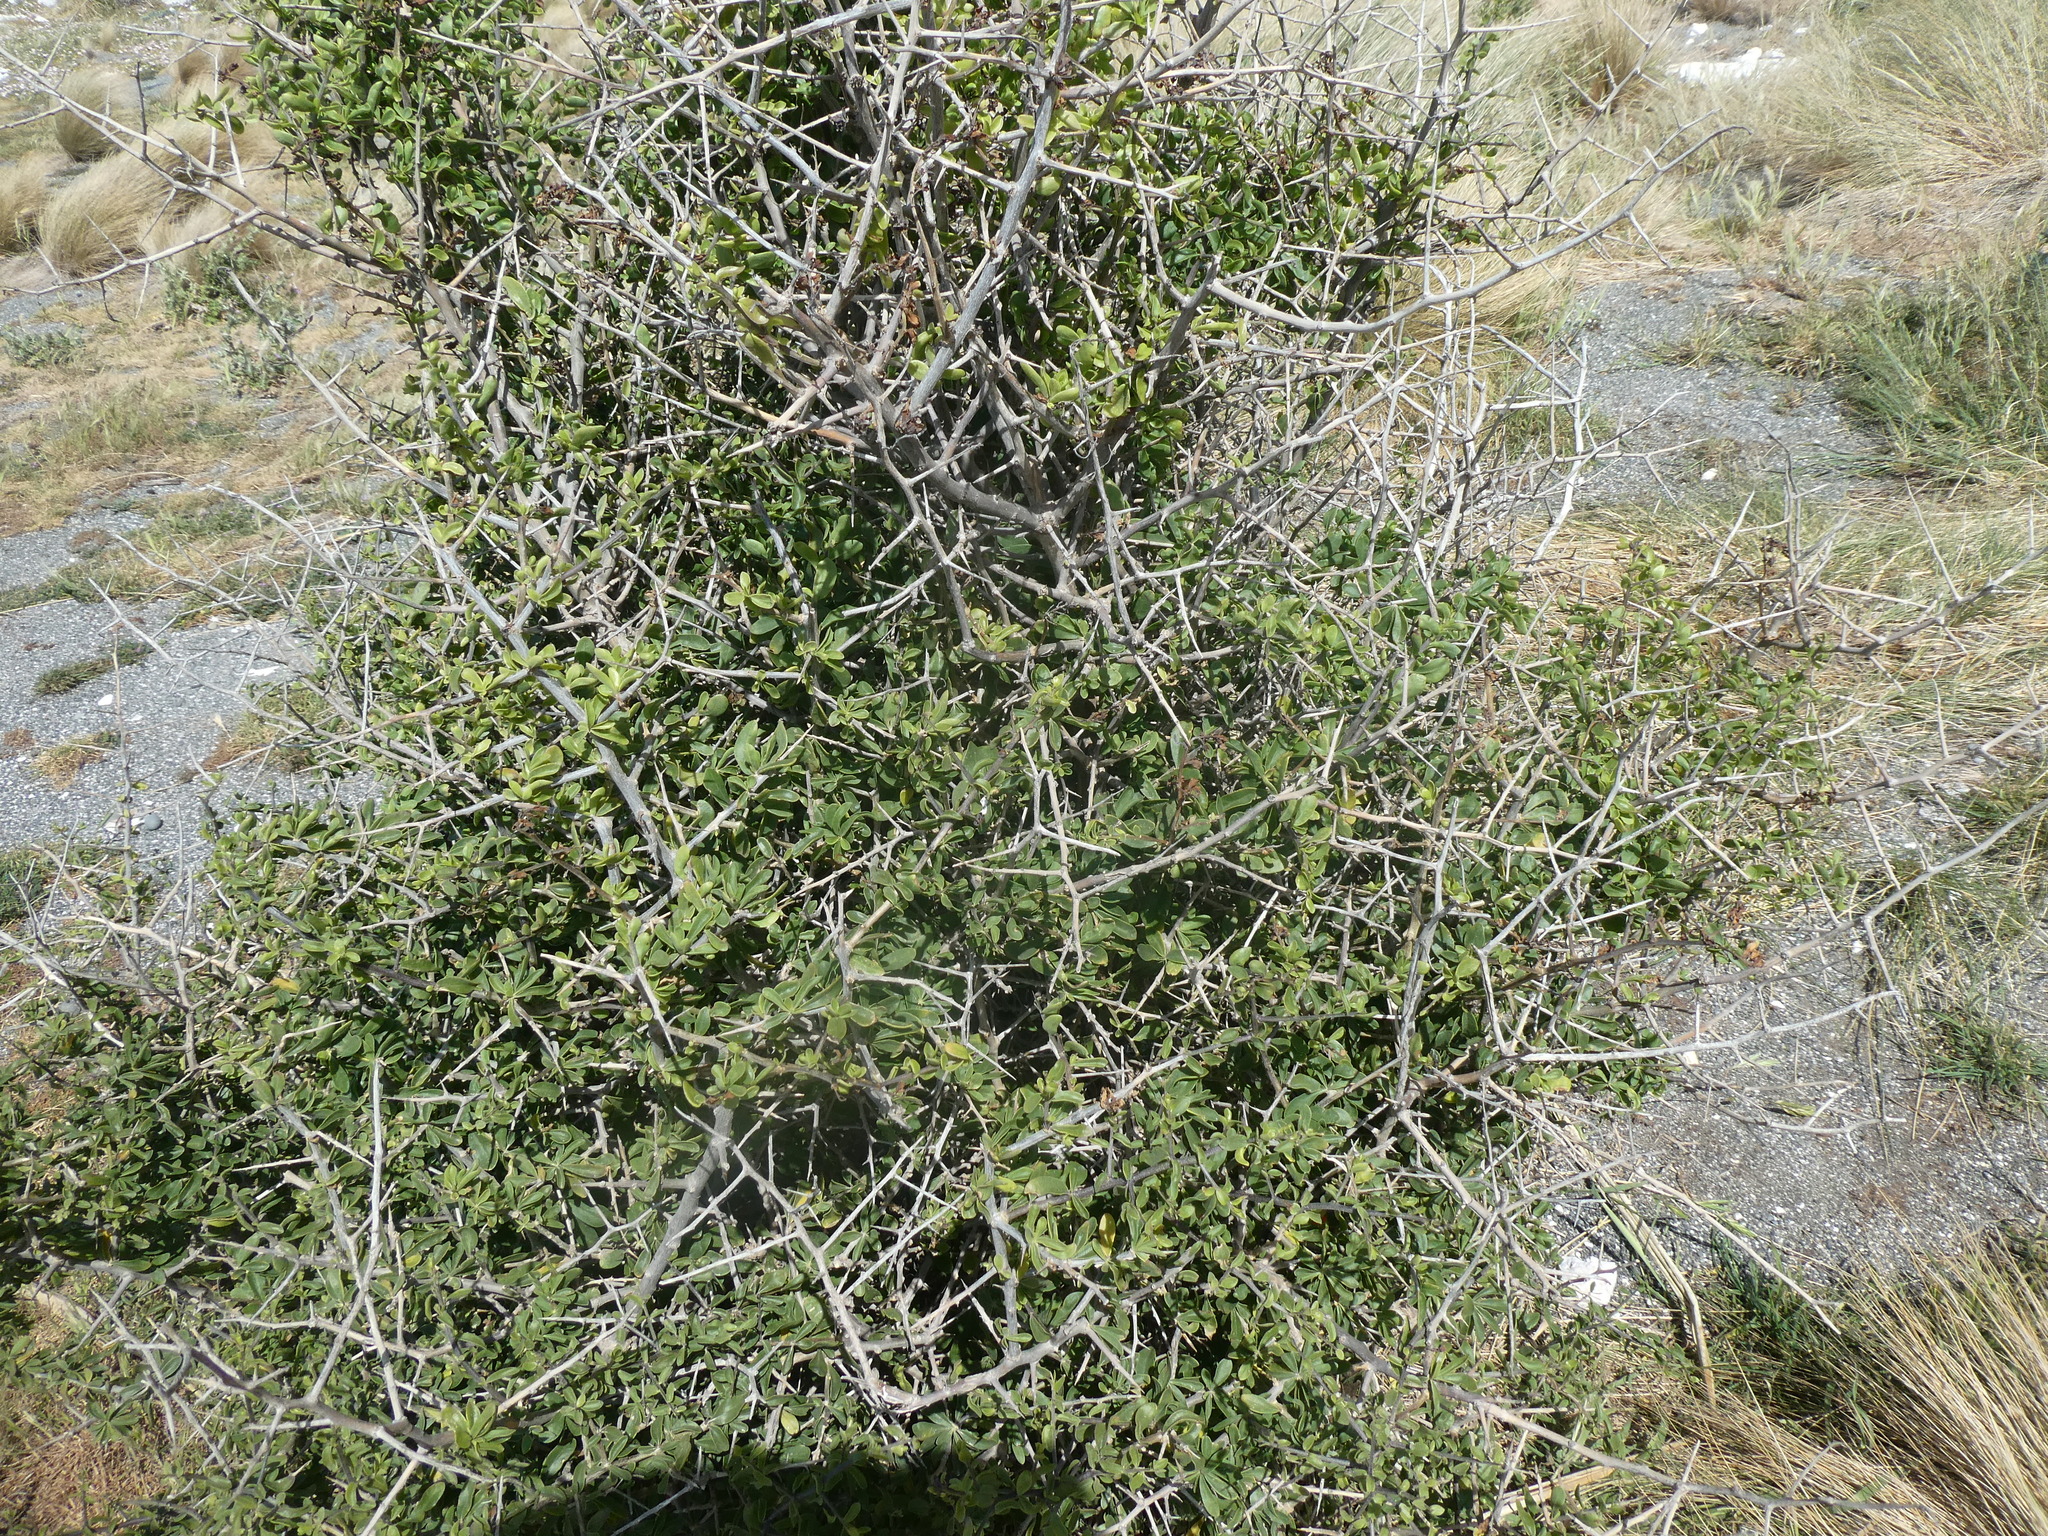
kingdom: Plantae
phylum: Tracheophyta
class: Magnoliopsida
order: Solanales
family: Solanaceae
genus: Lycium
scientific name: Lycium ferocissimum
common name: African boxthorn
